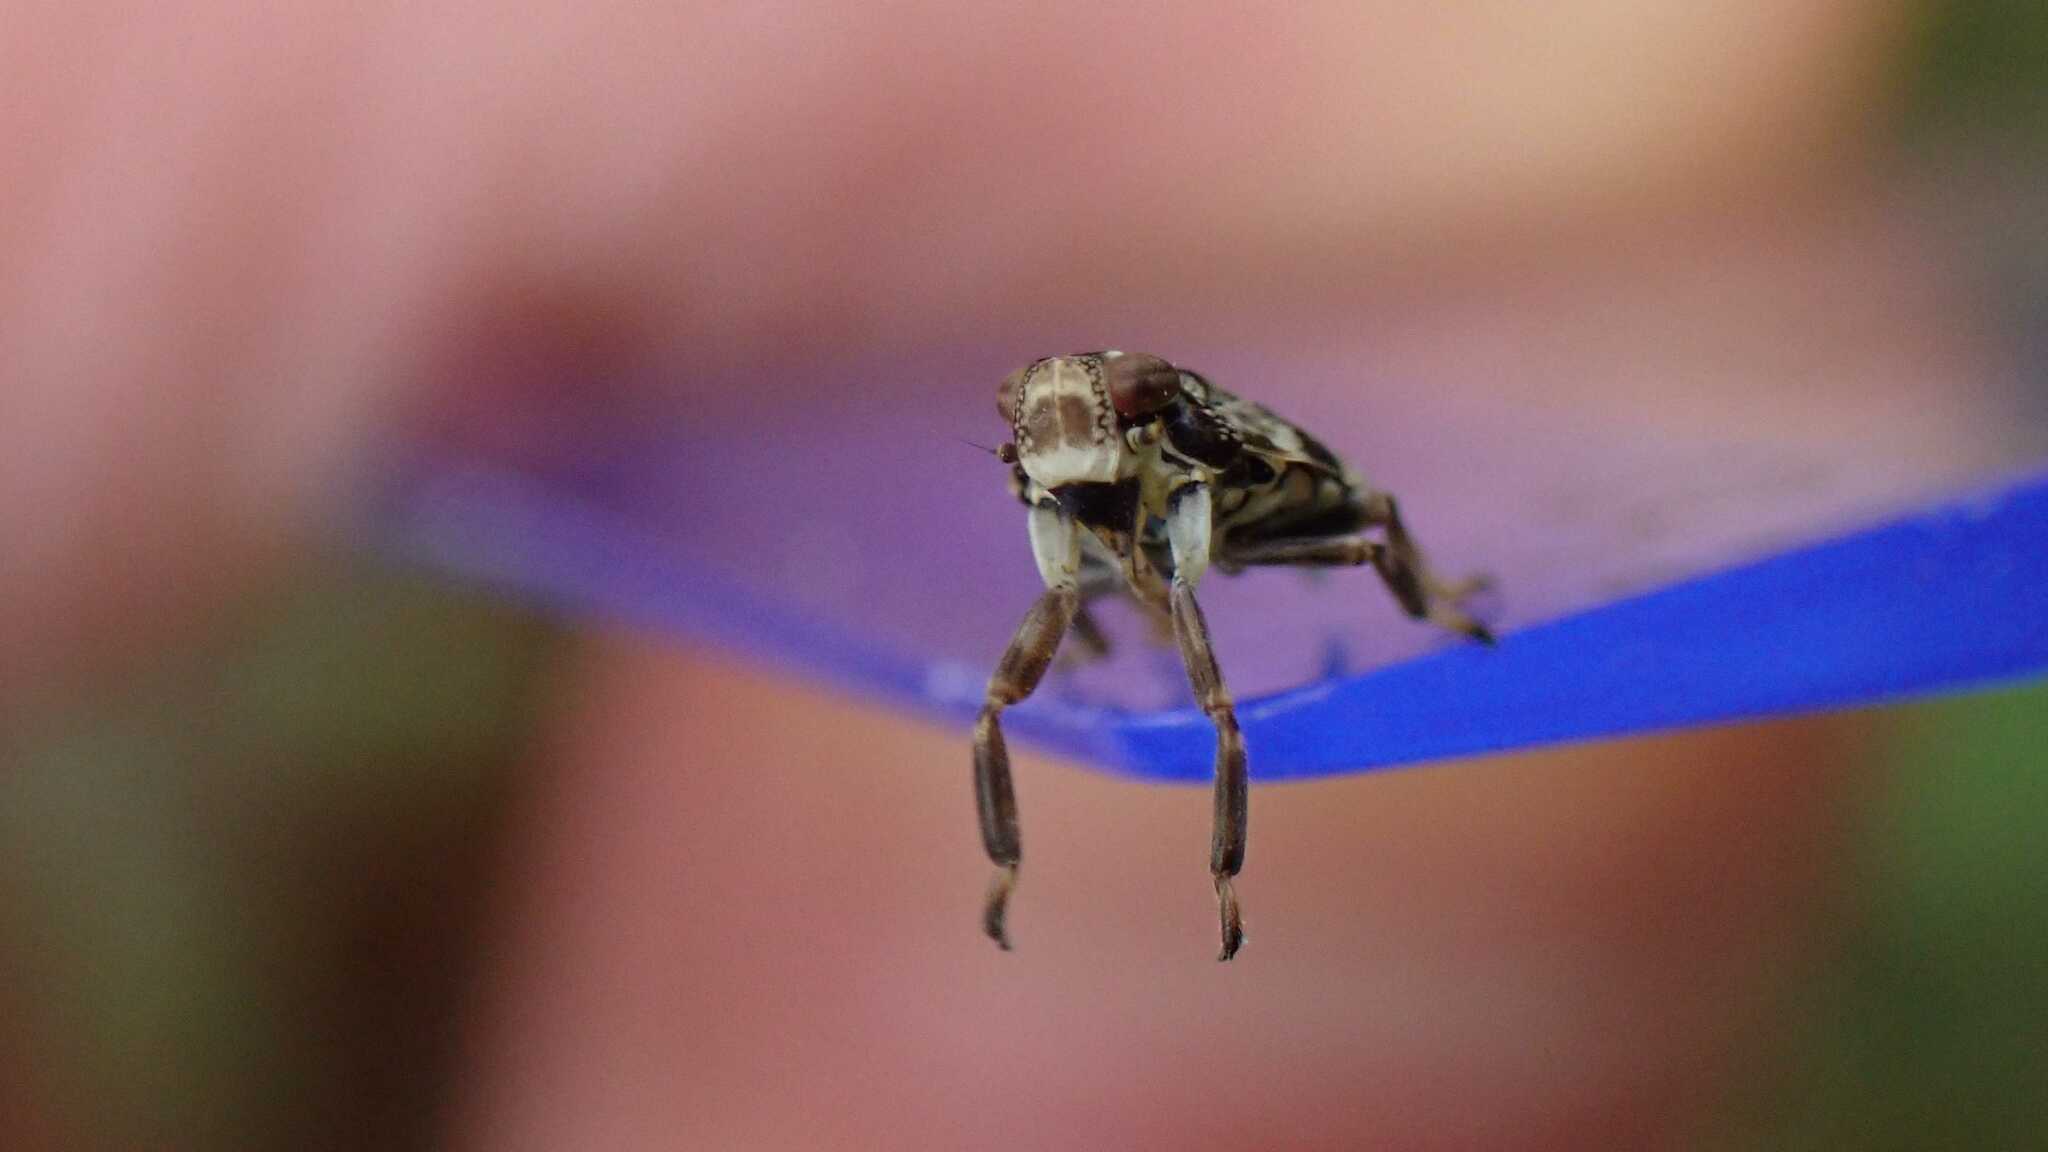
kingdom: Animalia
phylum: Arthropoda
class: Insecta
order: Hemiptera
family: Issidae
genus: Issus
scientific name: Issus coleoptratus
